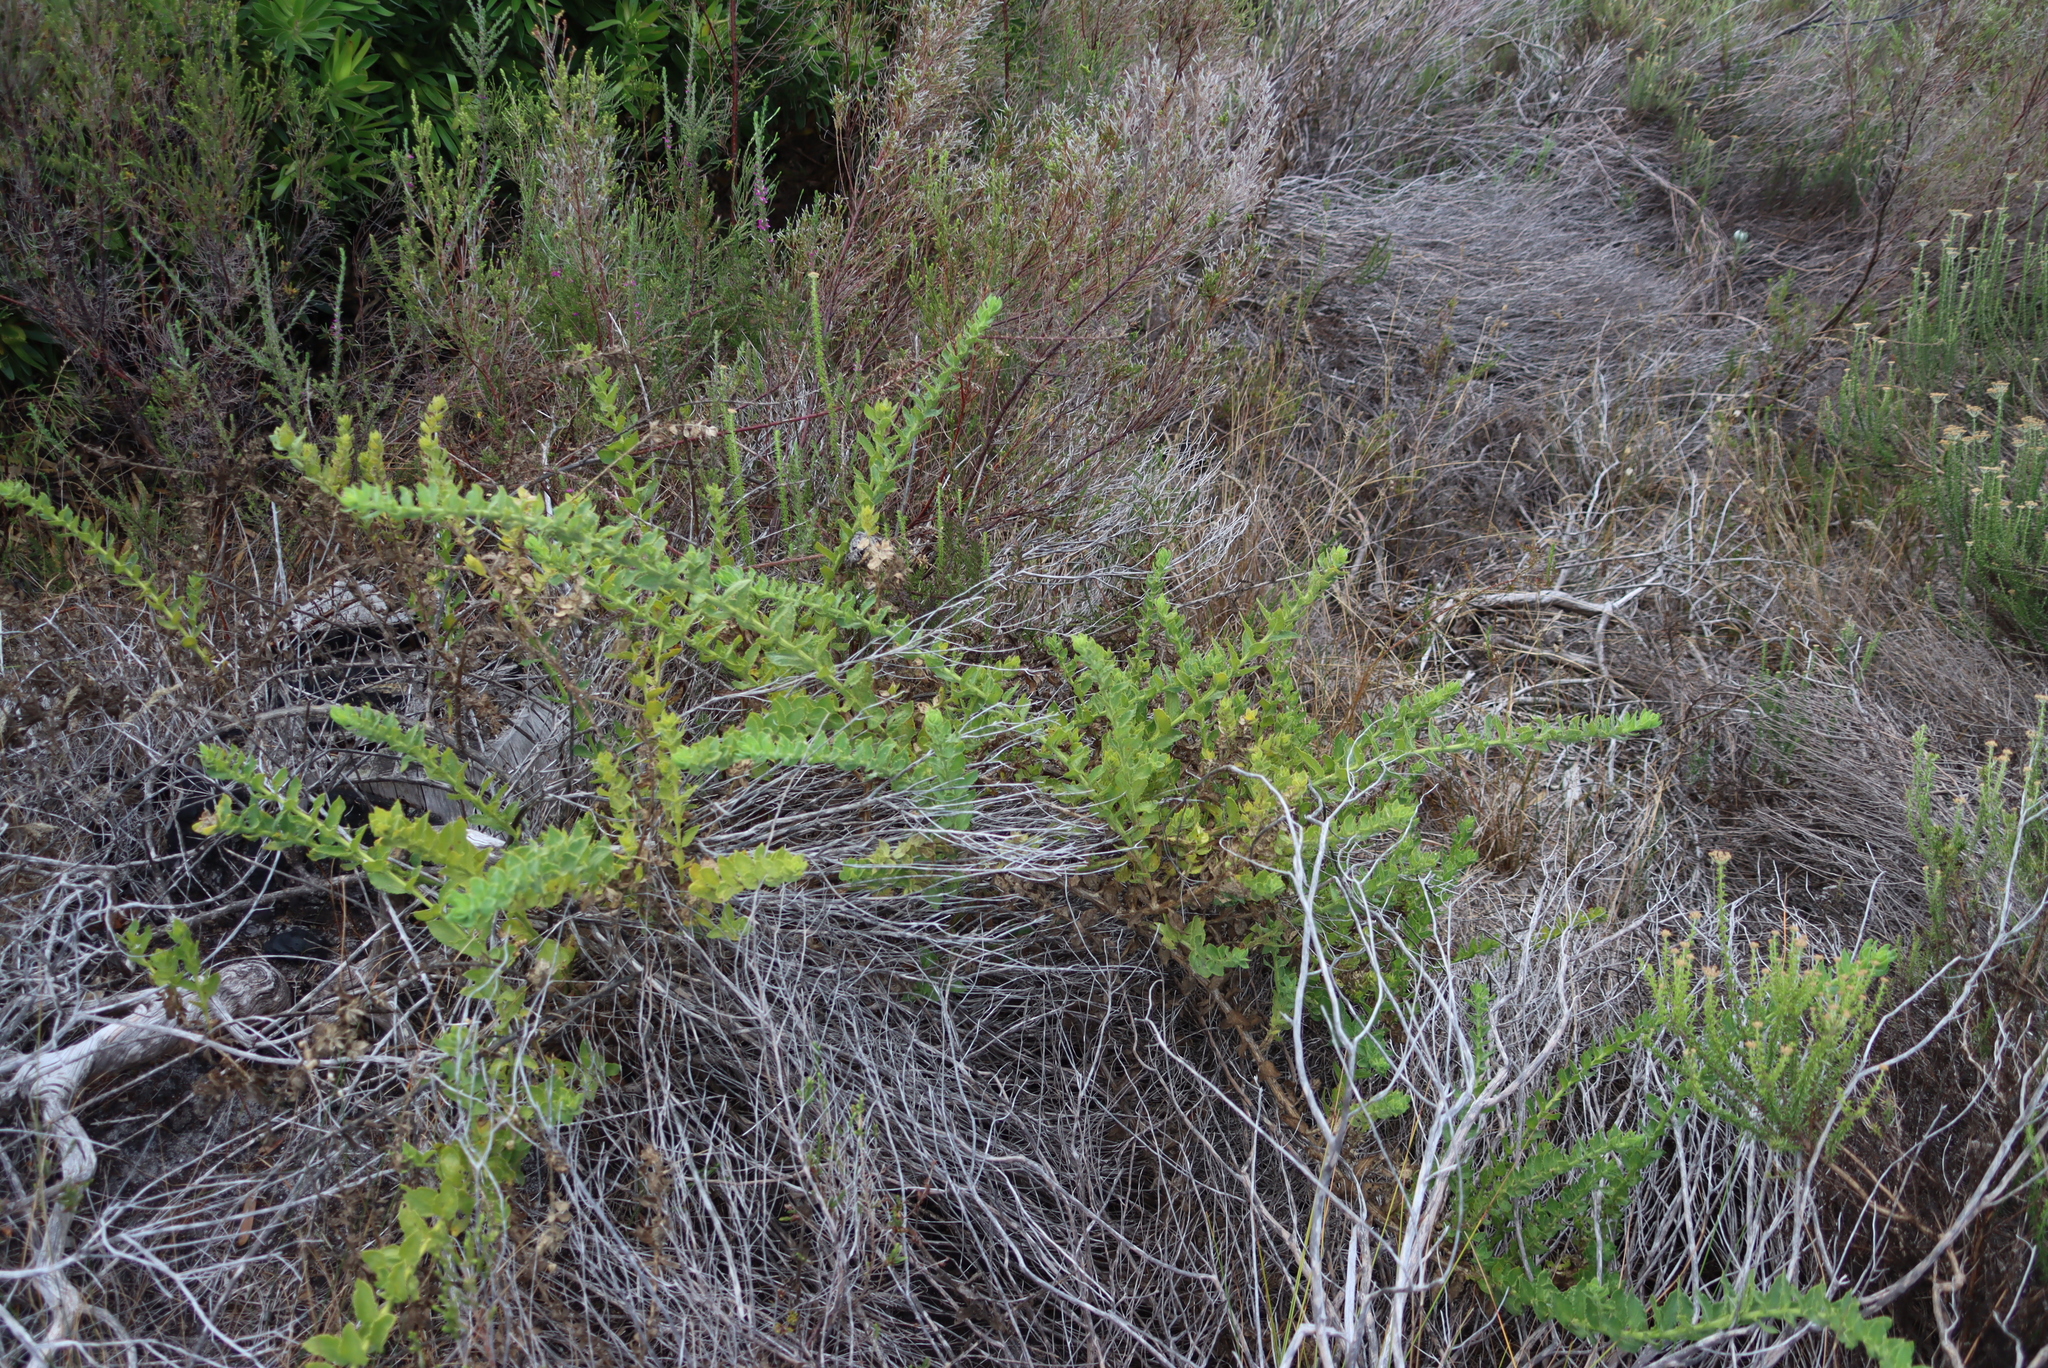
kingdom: Plantae
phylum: Tracheophyta
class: Magnoliopsida
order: Lamiales
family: Scrophulariaceae
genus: Oftia
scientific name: Oftia africana
